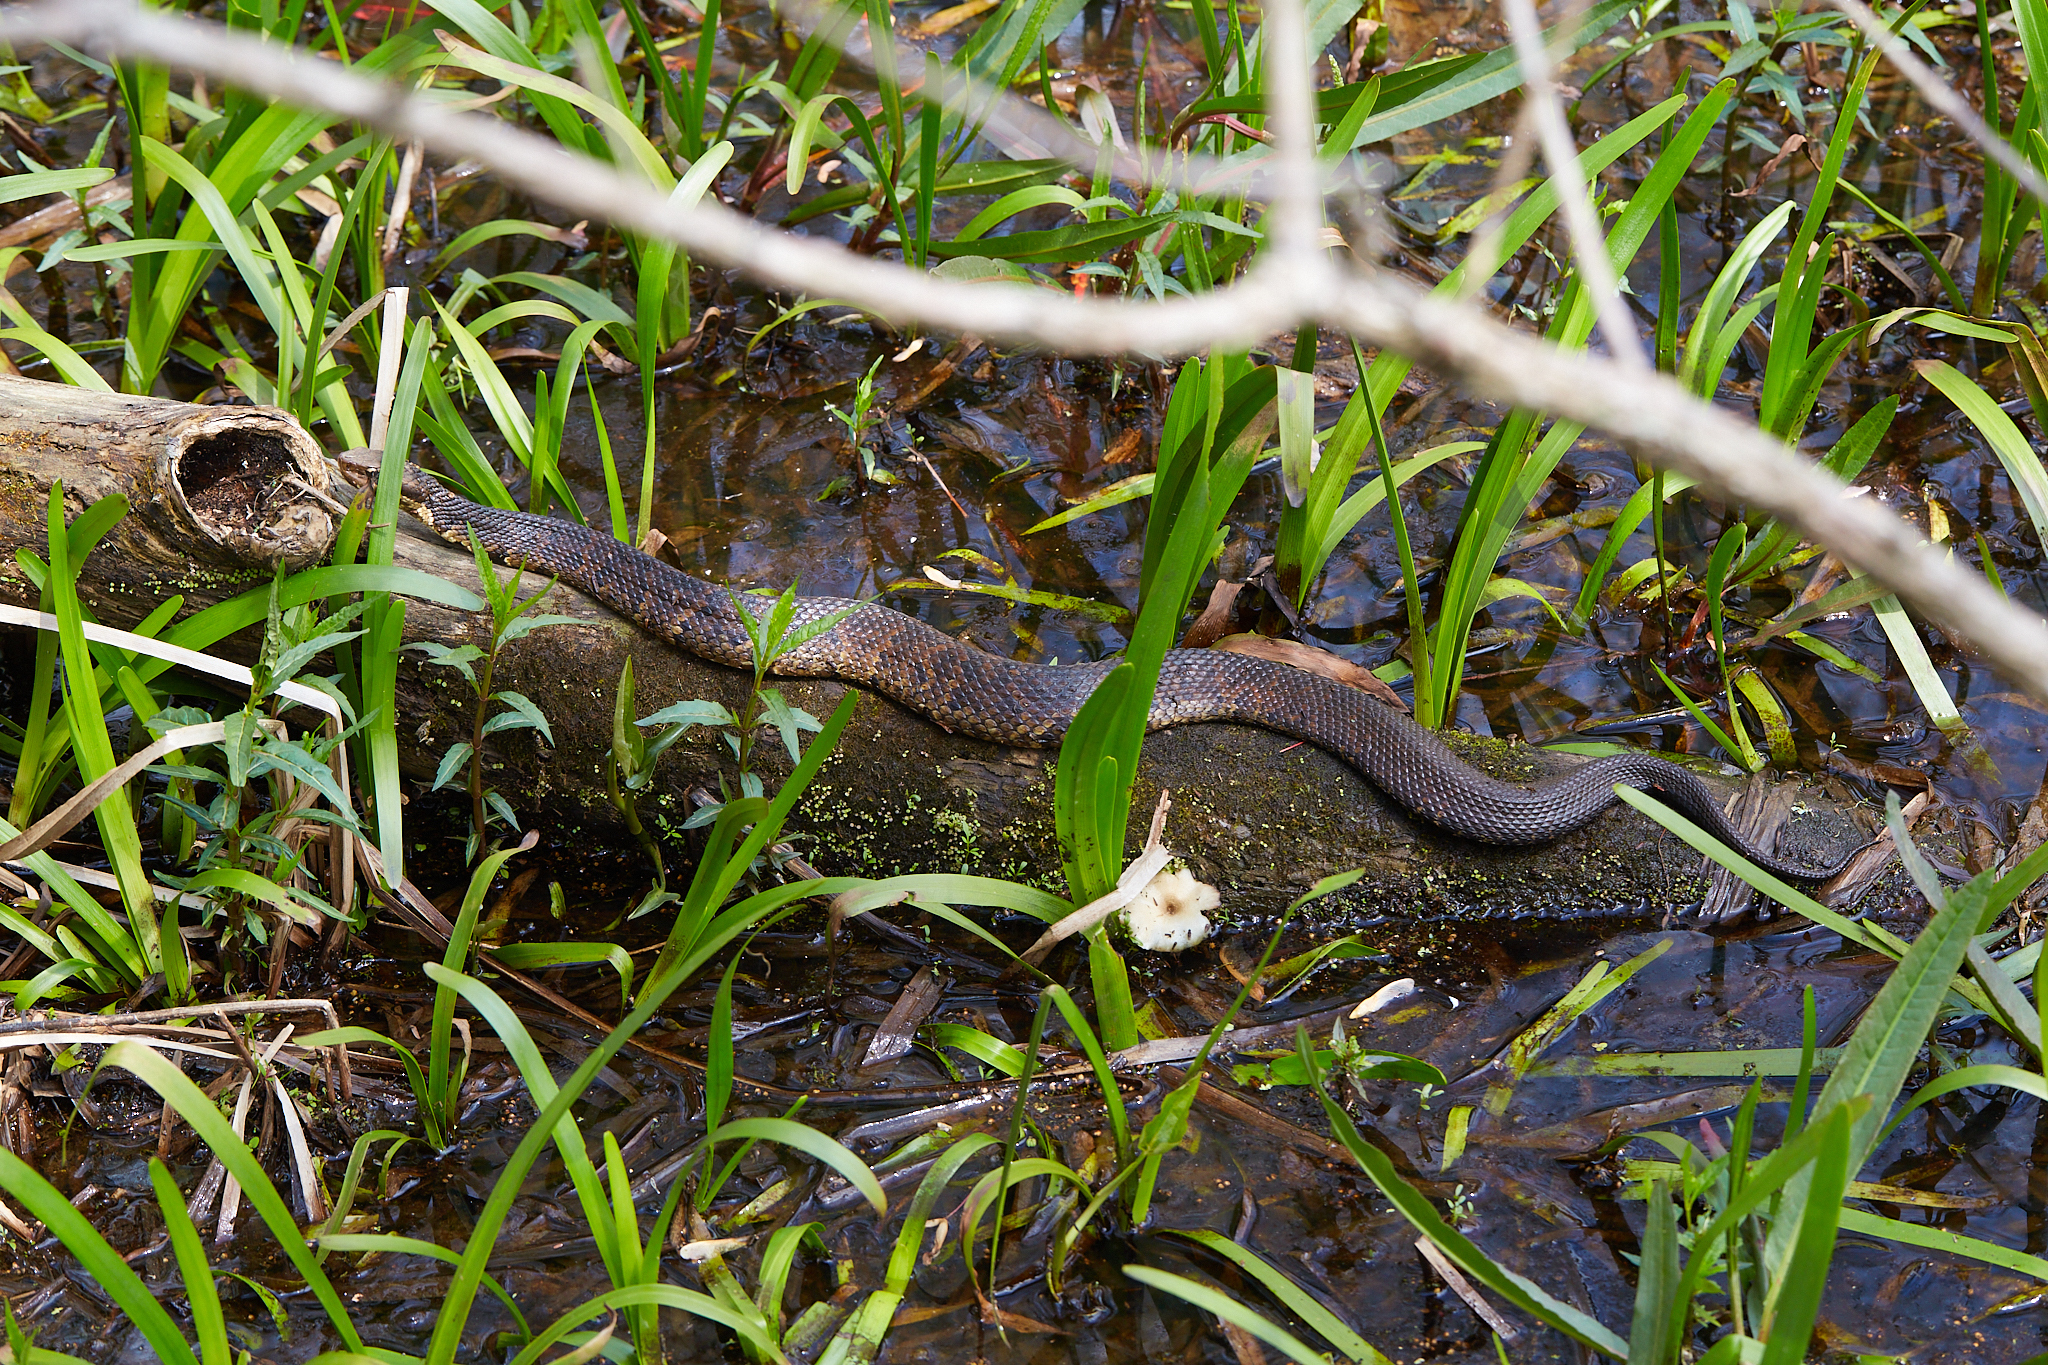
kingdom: Animalia
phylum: Chordata
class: Squamata
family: Viperidae
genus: Agkistrodon
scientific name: Agkistrodon piscivorus
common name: Cottonmouth
